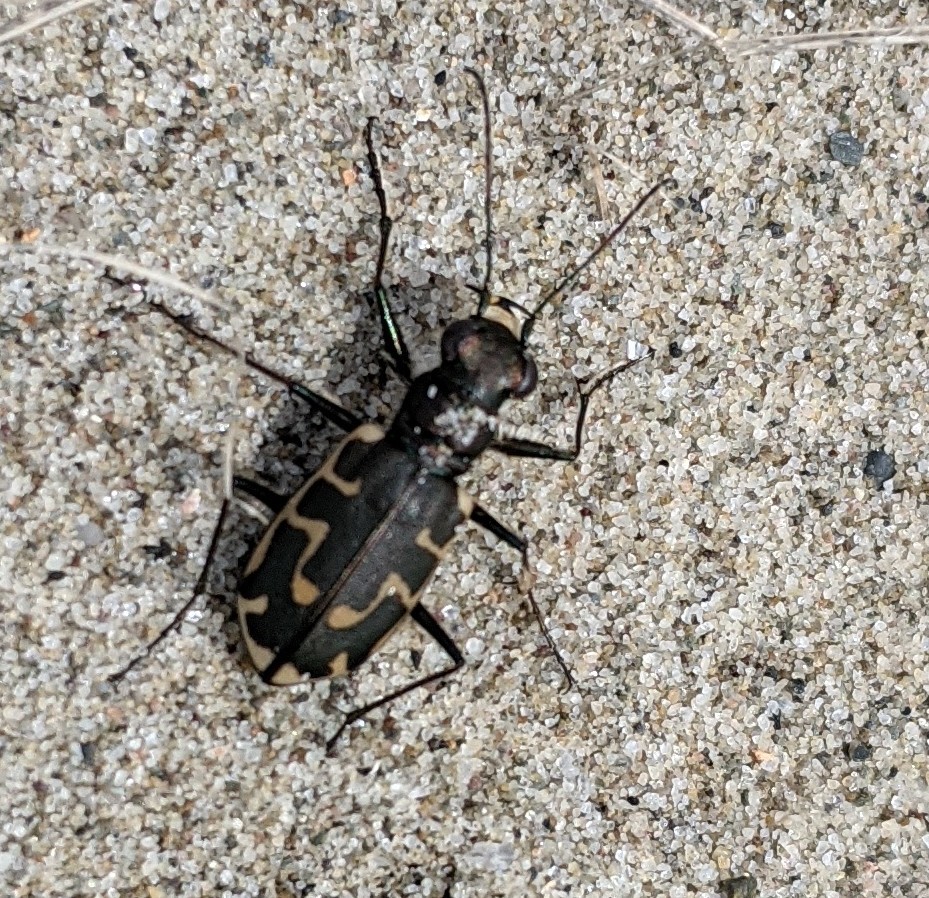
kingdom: Animalia
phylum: Arthropoda
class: Insecta
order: Coleoptera
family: Carabidae
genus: Cicindela
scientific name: Cicindela hirticollis
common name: Hairy-necked tiger beetle
